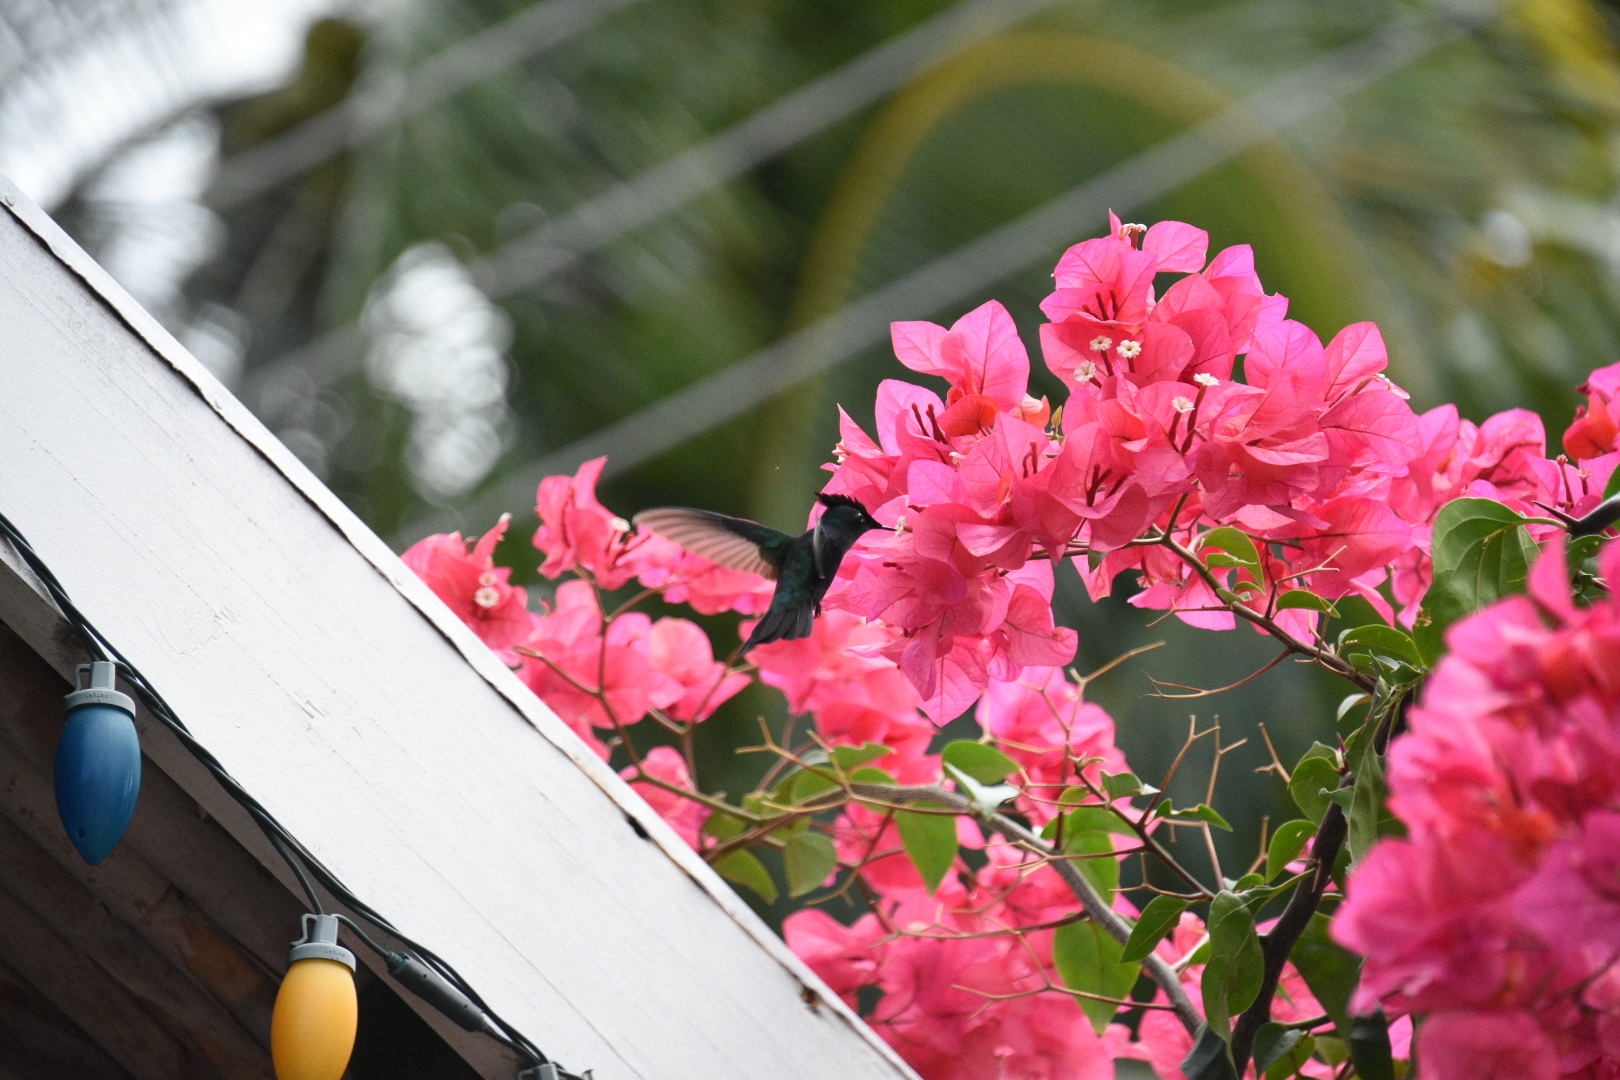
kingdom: Animalia
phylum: Chordata
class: Aves
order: Apodiformes
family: Trochilidae
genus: Orthorhyncus
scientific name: Orthorhyncus cristatus
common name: Antillean crested hummingbird
